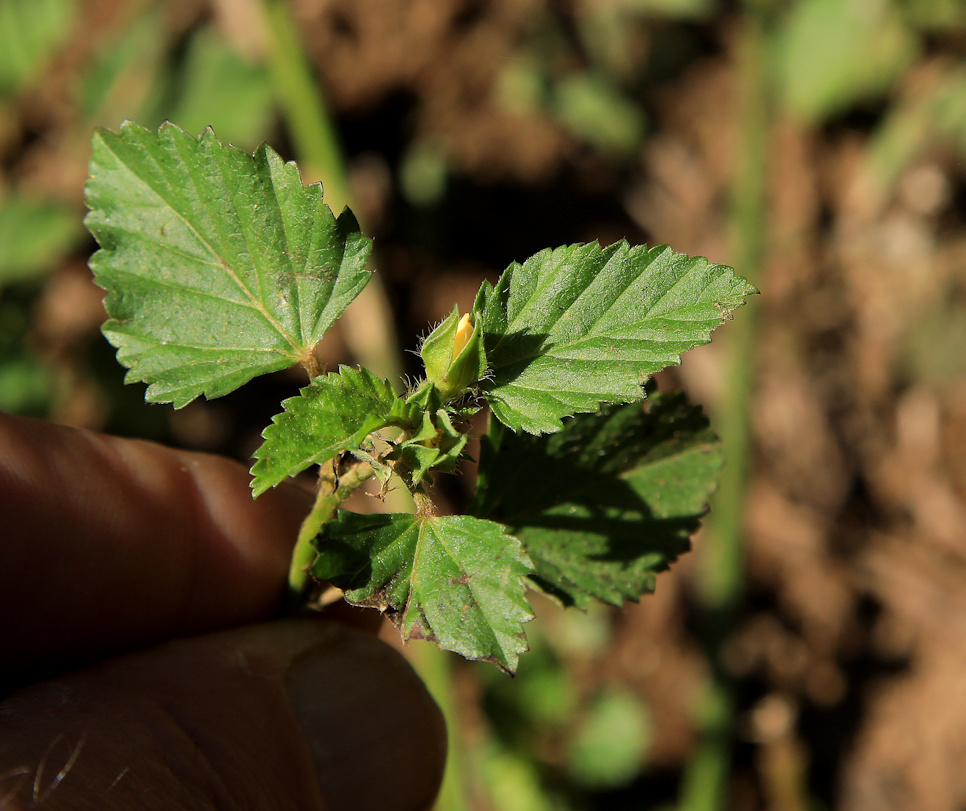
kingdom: Plantae
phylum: Tracheophyta
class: Magnoliopsida
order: Malvales
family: Malvaceae
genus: Malvastrum
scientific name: Malvastrum coromandelianum
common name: Threelobe false mallow
